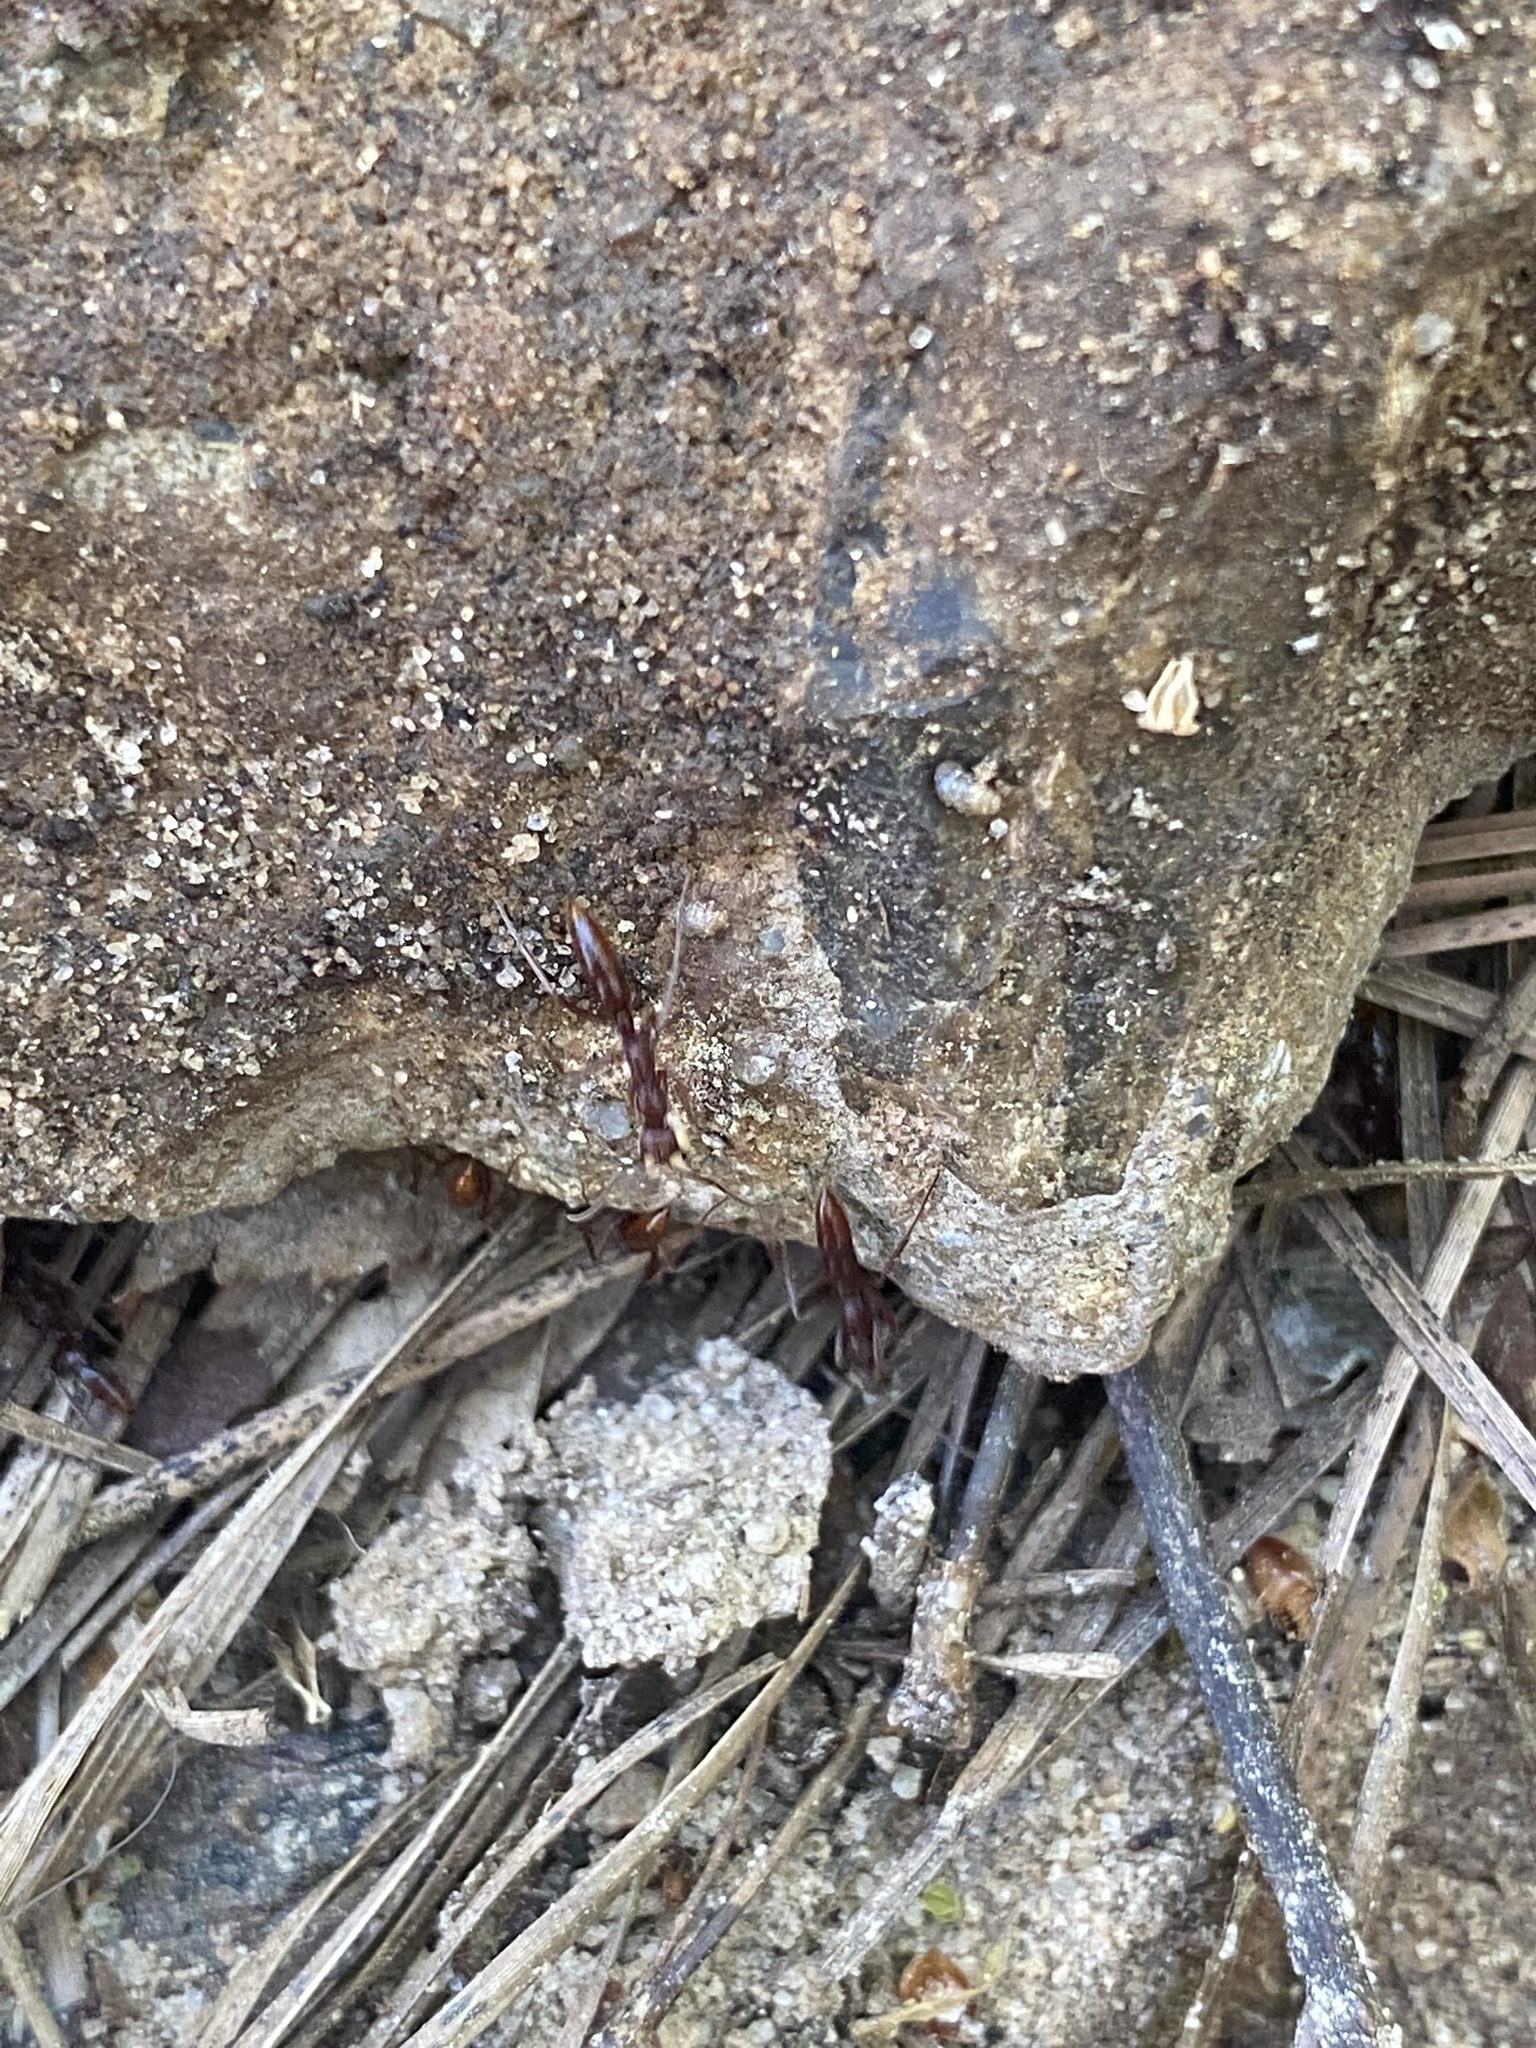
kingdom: Animalia
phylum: Arthropoda
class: Insecta
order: Hymenoptera
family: Formicidae
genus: Leptogenys
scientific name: Leptogenys elongata
